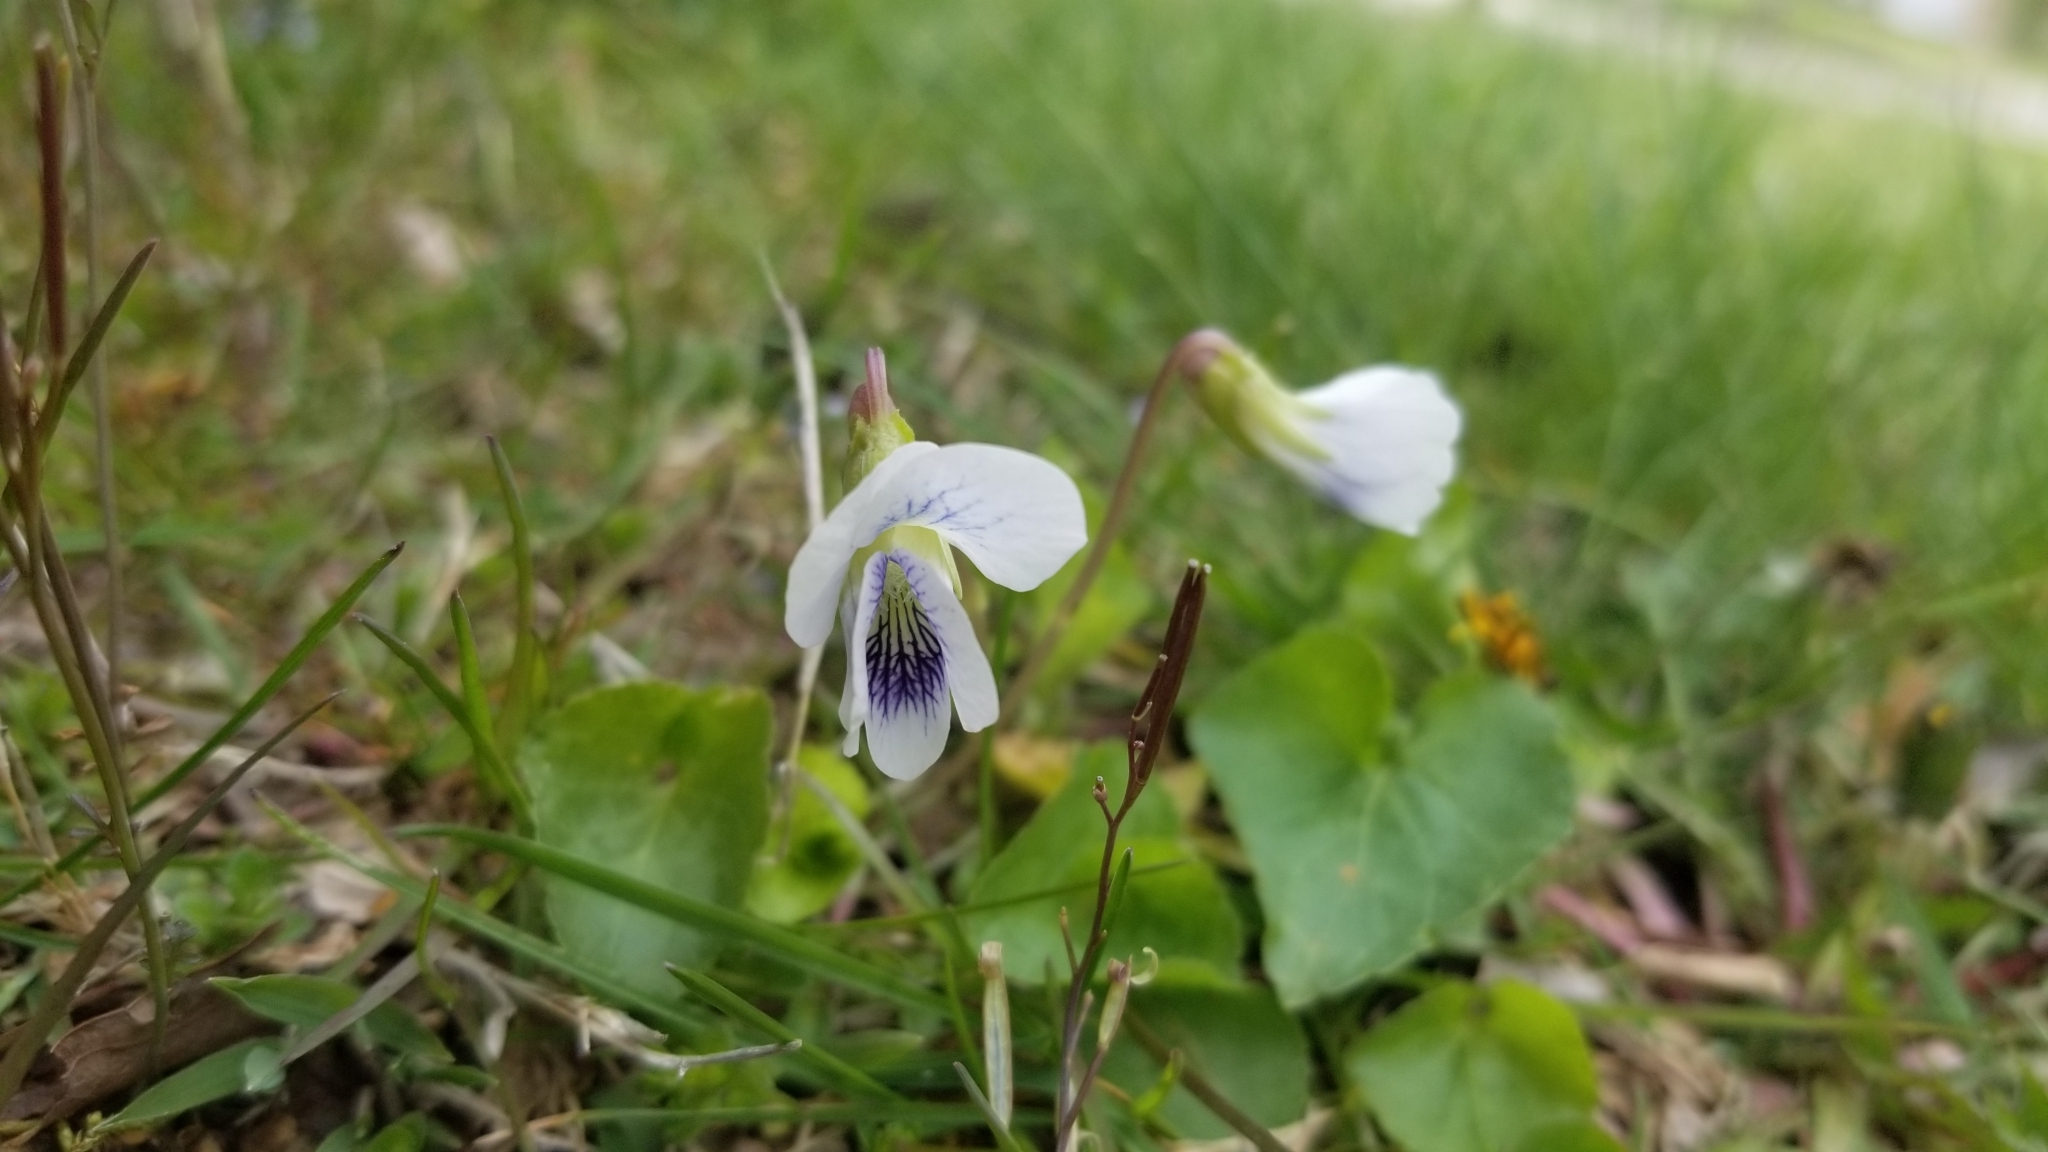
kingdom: Plantae
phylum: Tracheophyta
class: Magnoliopsida
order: Malpighiales
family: Violaceae
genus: Viola
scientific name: Viola sororia
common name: Dooryard violet
